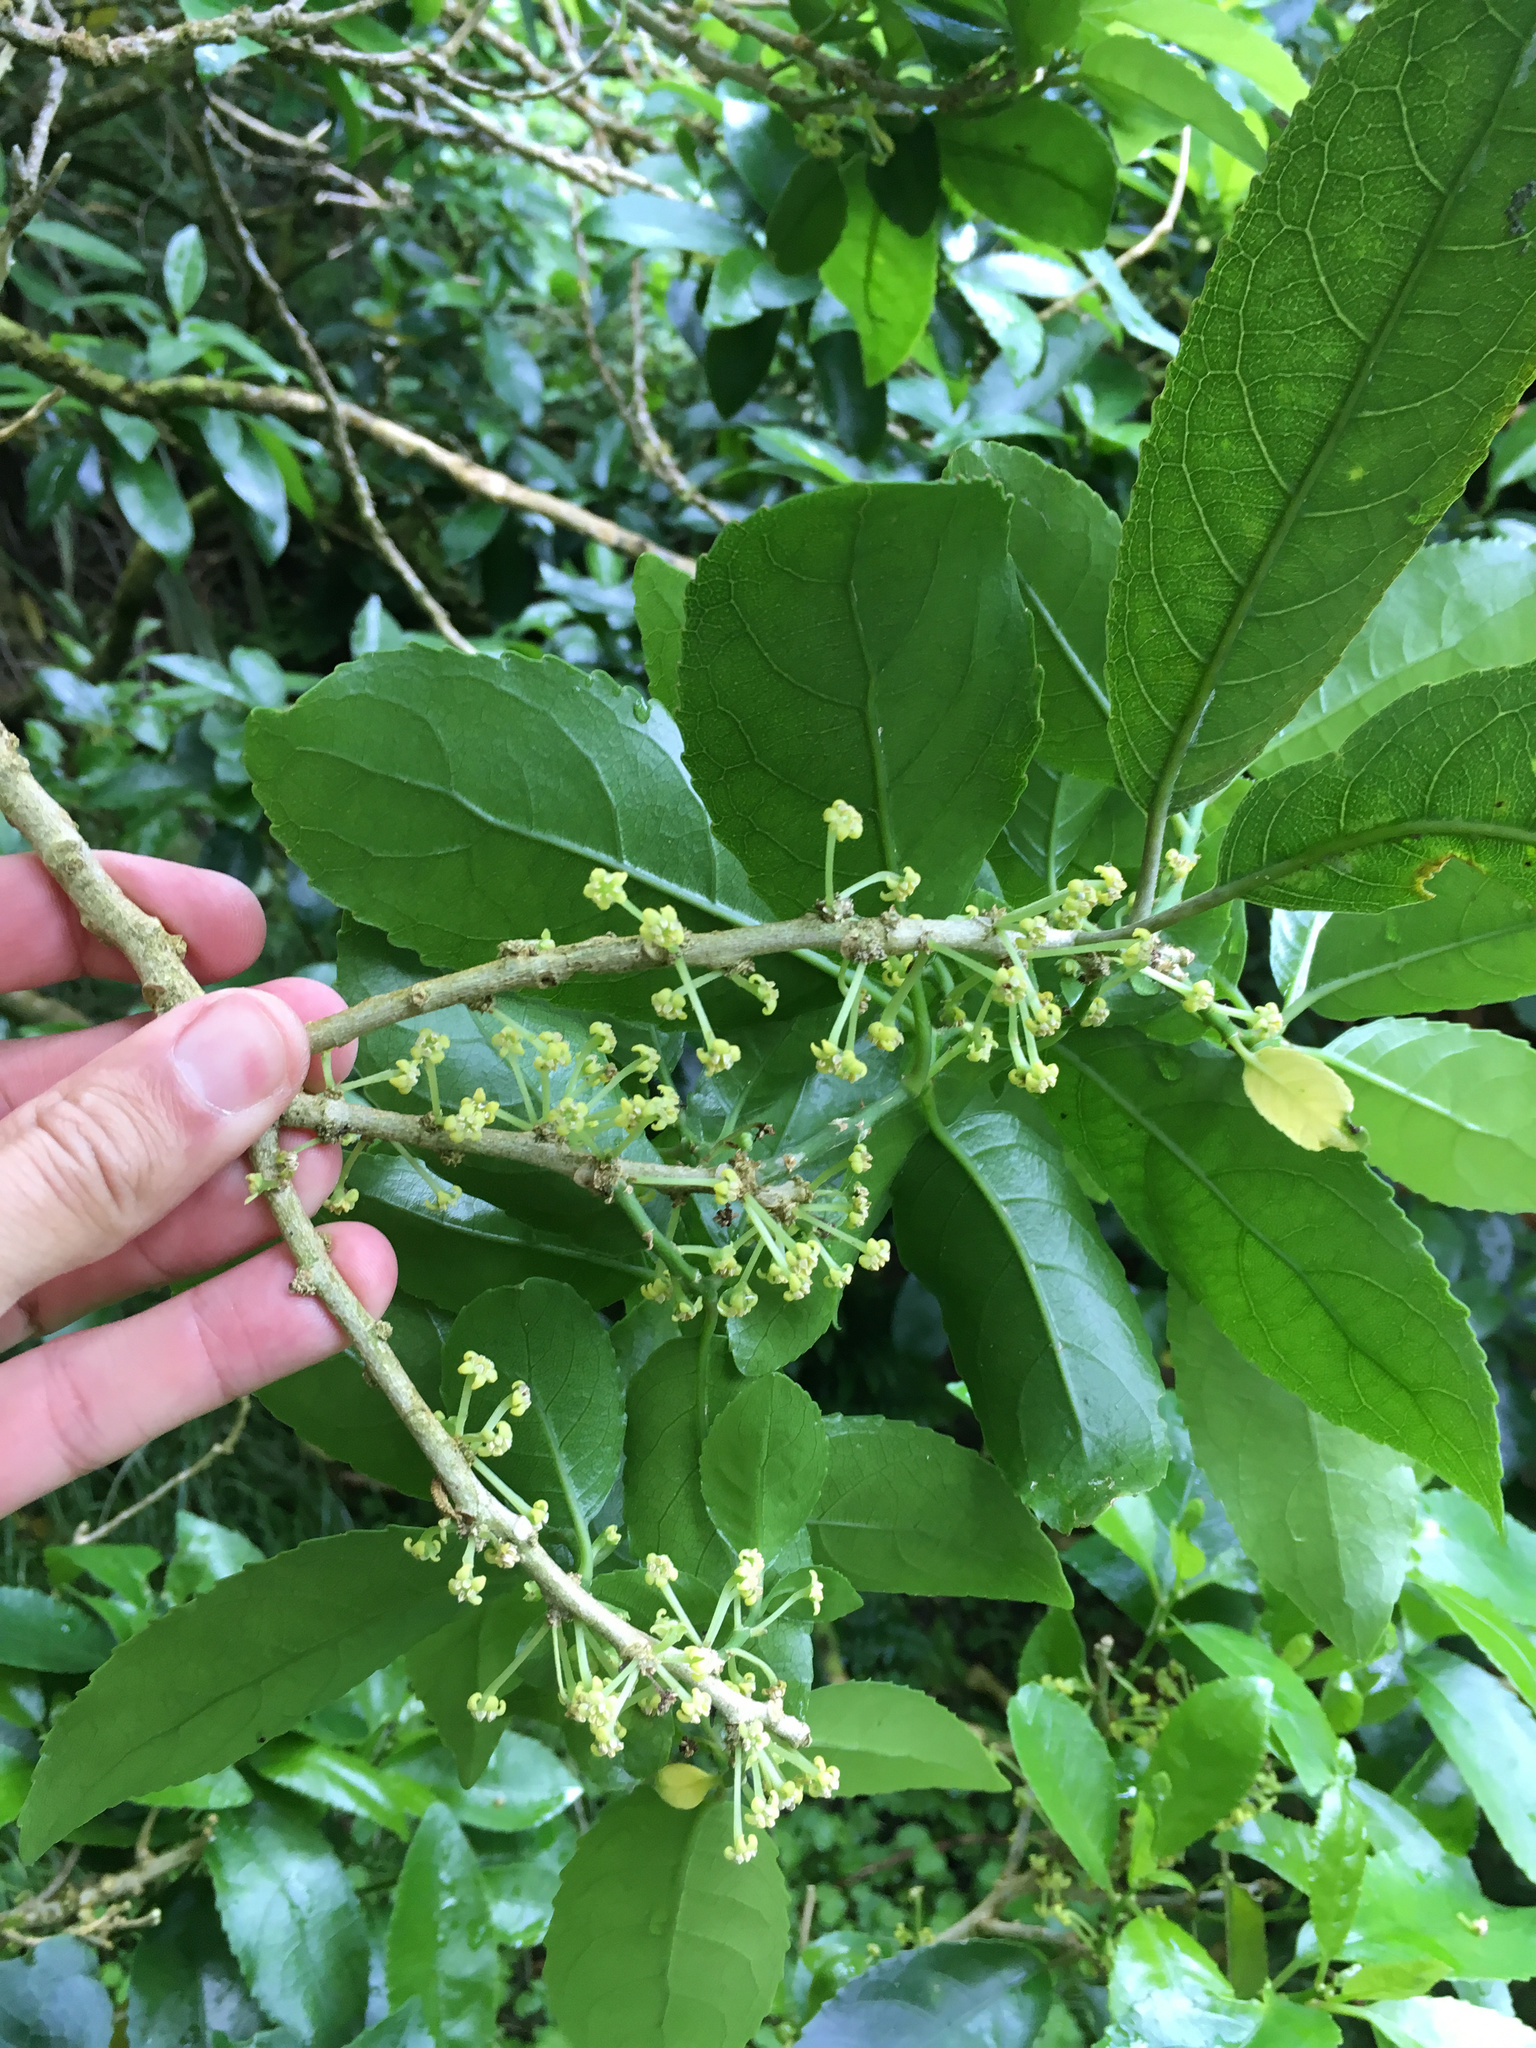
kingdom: Plantae
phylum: Tracheophyta
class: Magnoliopsida
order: Malpighiales
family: Violaceae
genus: Melicytus
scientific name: Melicytus ramiflorus
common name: Mahoe
